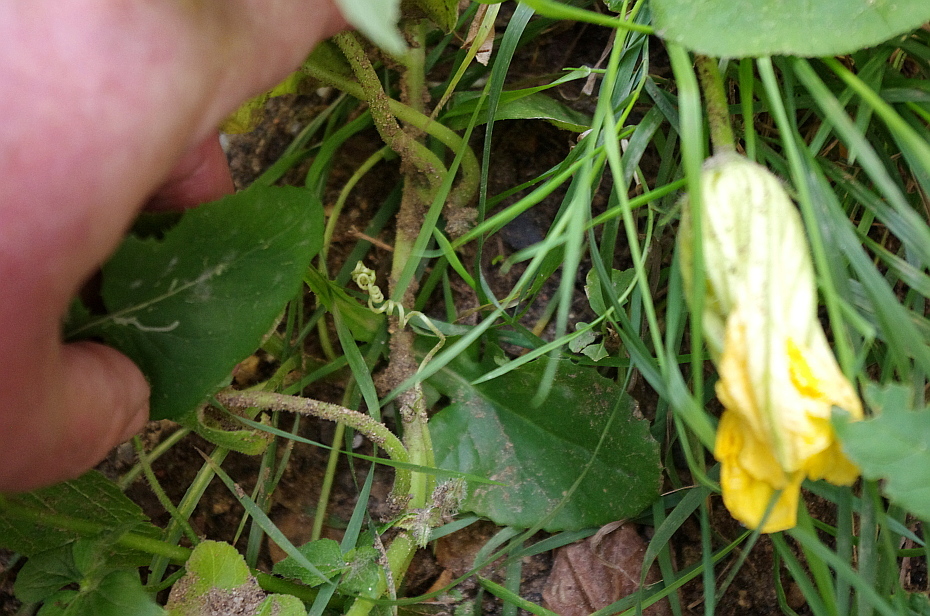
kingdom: Plantae
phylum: Tracheophyta
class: Magnoliopsida
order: Cucurbitales
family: Cucurbitaceae
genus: Cucurbita
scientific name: Cucurbita maxima
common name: Pumpkin
